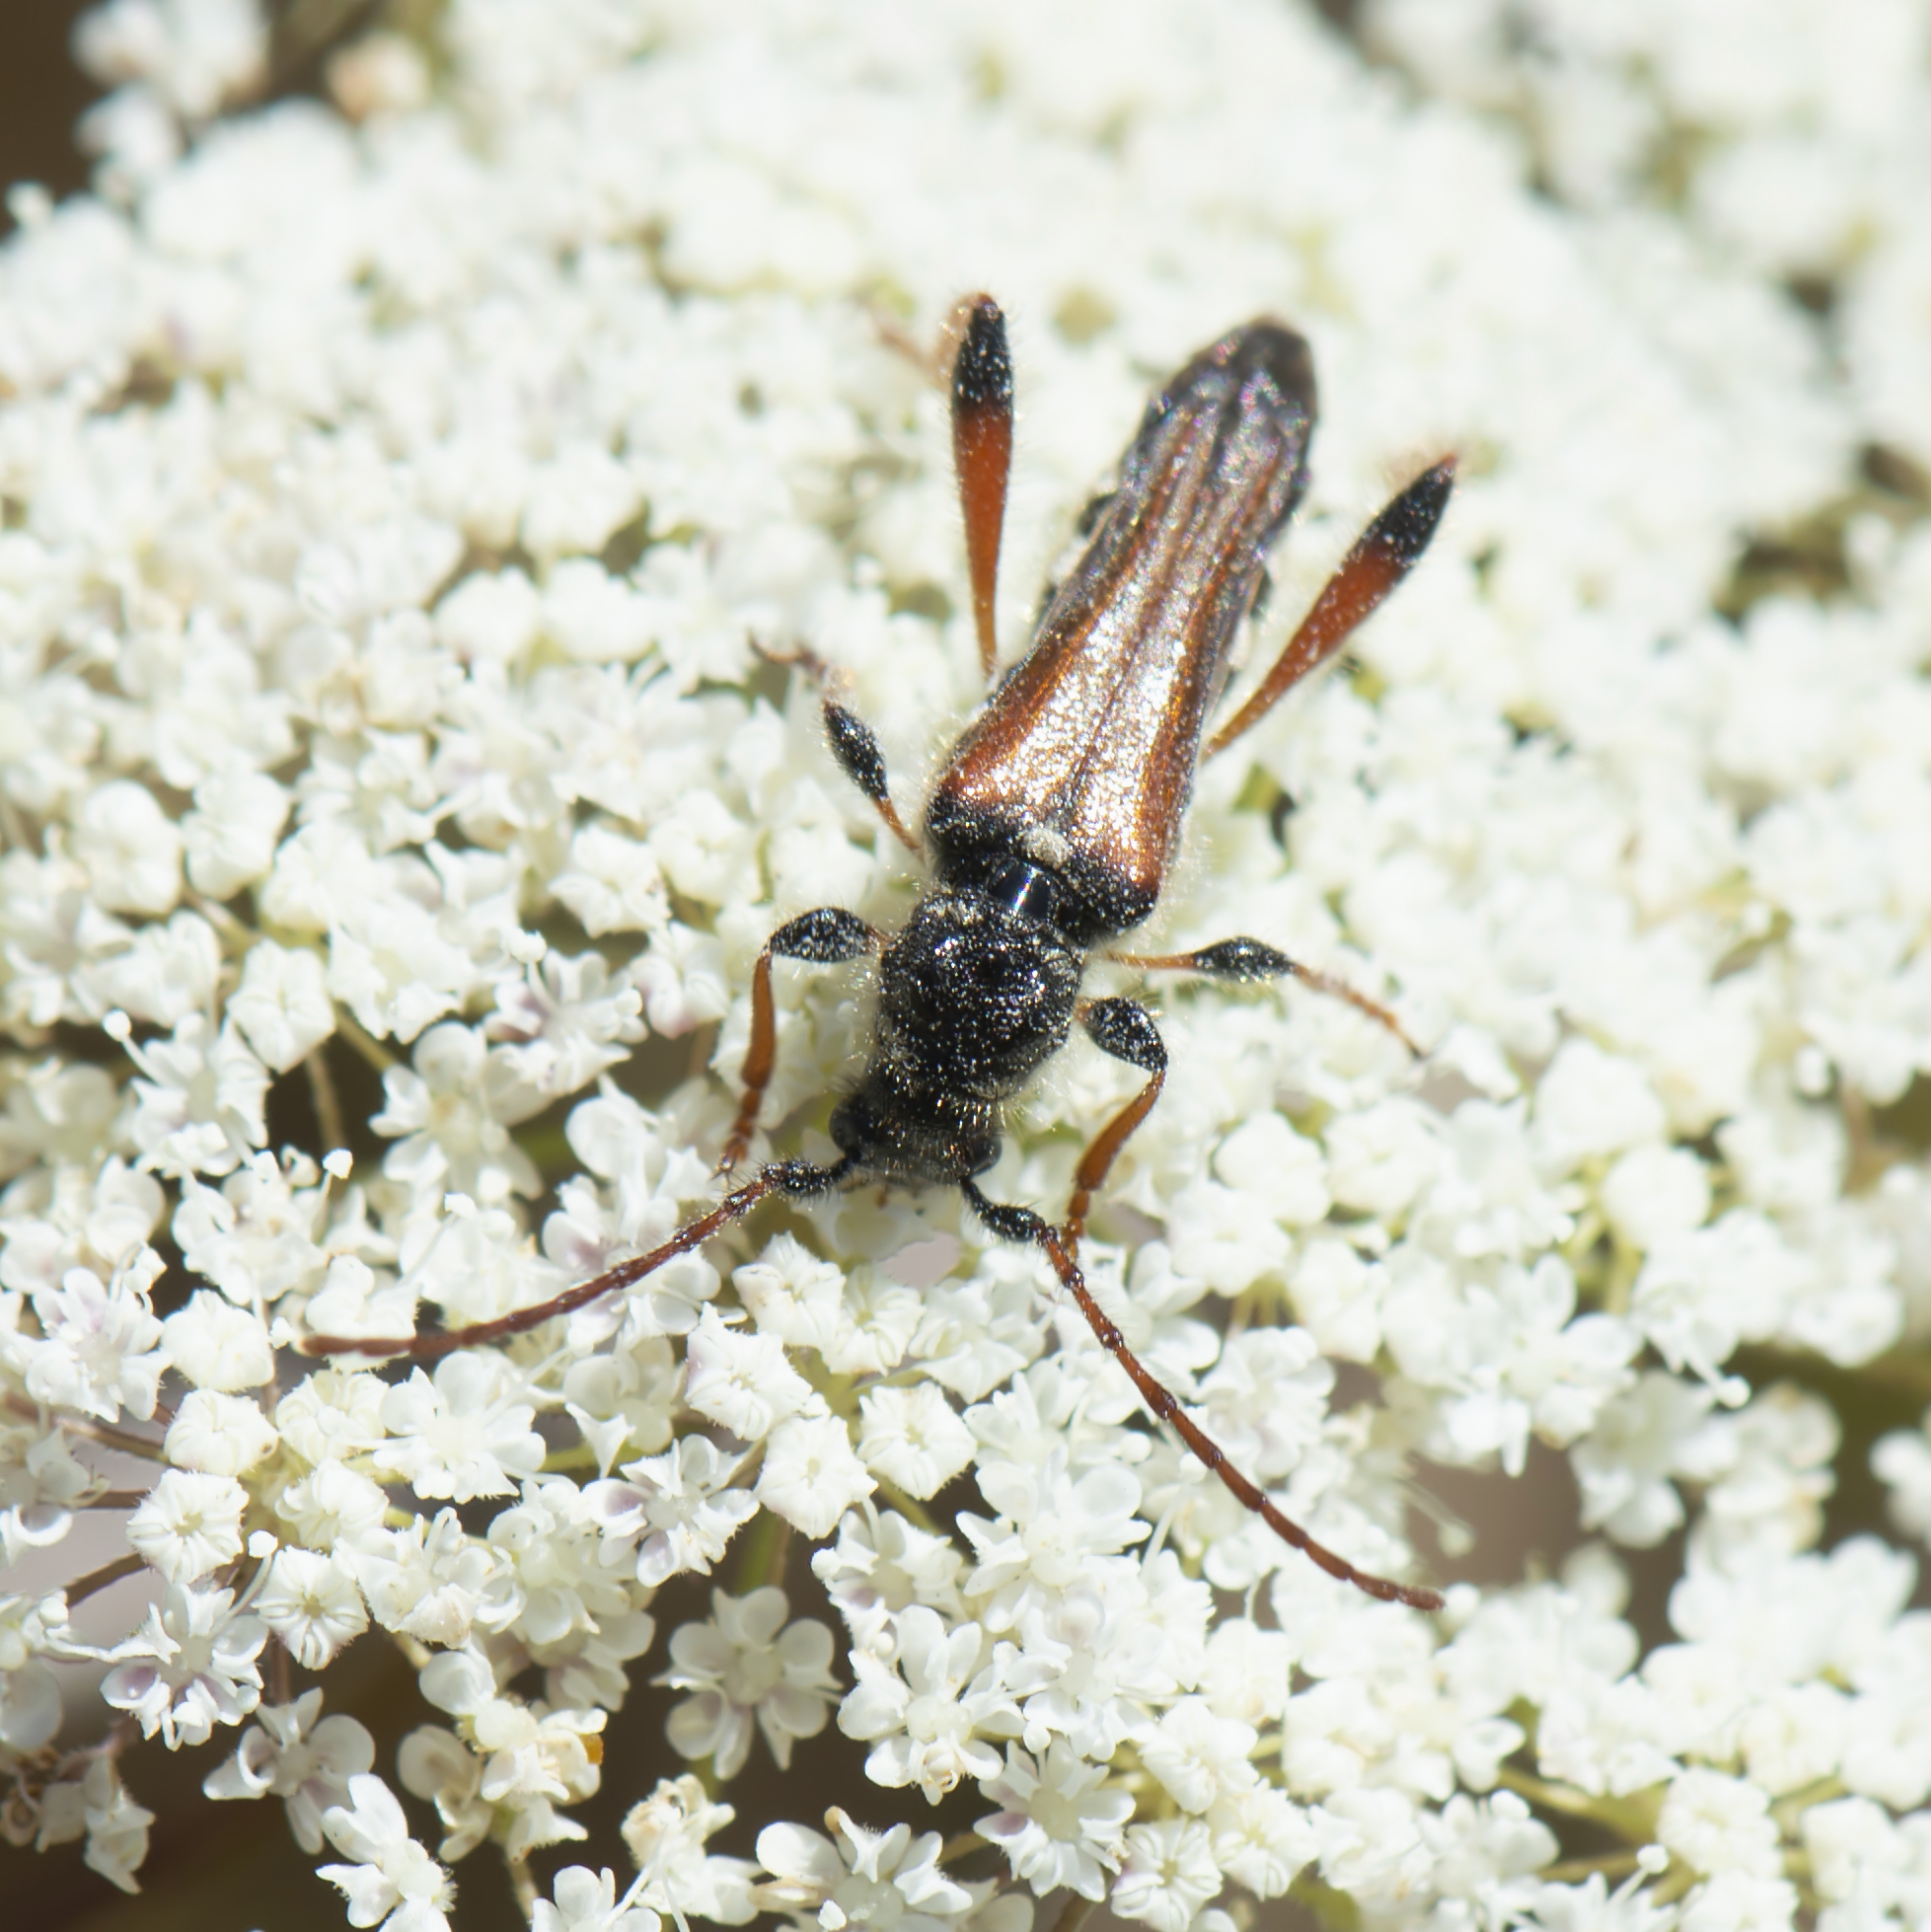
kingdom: Animalia
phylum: Arthropoda
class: Insecta
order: Coleoptera
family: Cerambycidae
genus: Stenopterus
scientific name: Stenopterus rufus
